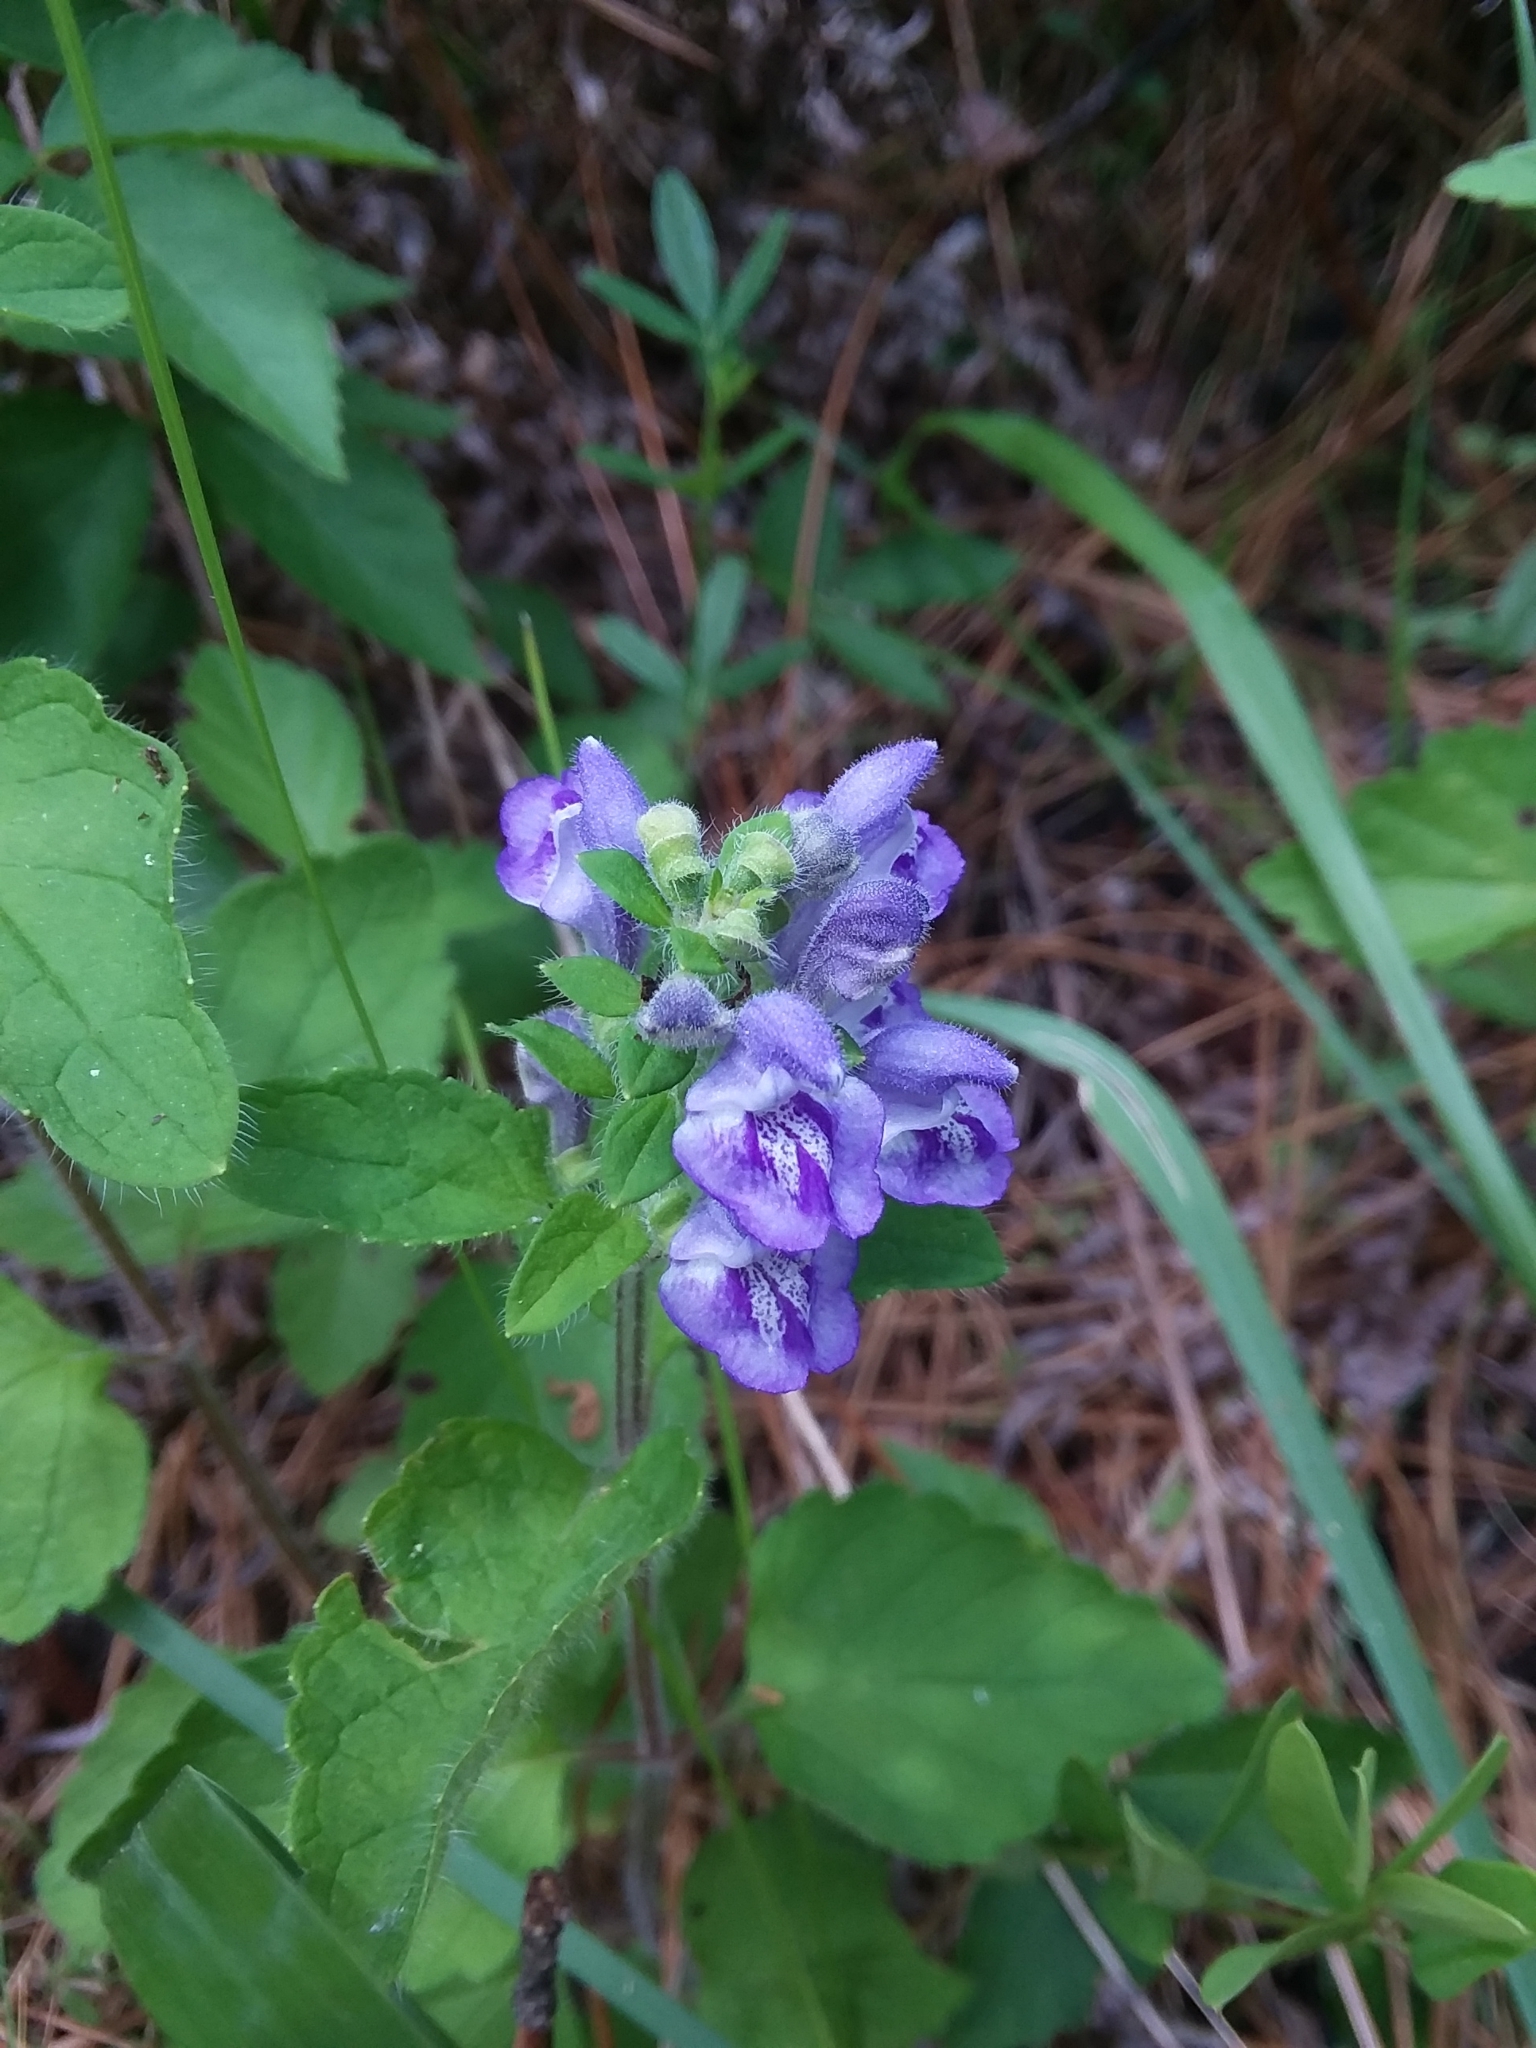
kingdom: Plantae
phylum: Tracheophyta
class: Magnoliopsida
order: Lamiales
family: Lamiaceae
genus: Scutellaria
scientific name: Scutellaria elliptica
